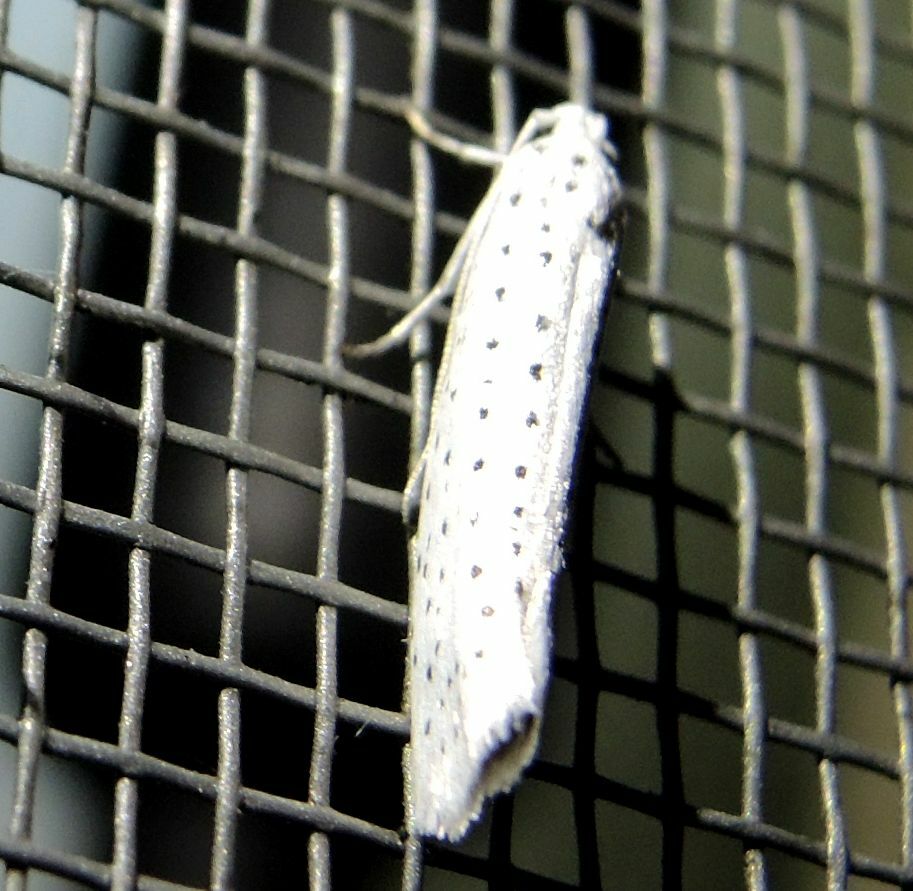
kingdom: Animalia
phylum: Arthropoda
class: Insecta
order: Lepidoptera
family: Yponomeutidae
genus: Yponomeuta
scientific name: Yponomeuta evonymella
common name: Bird-cherry ermine
